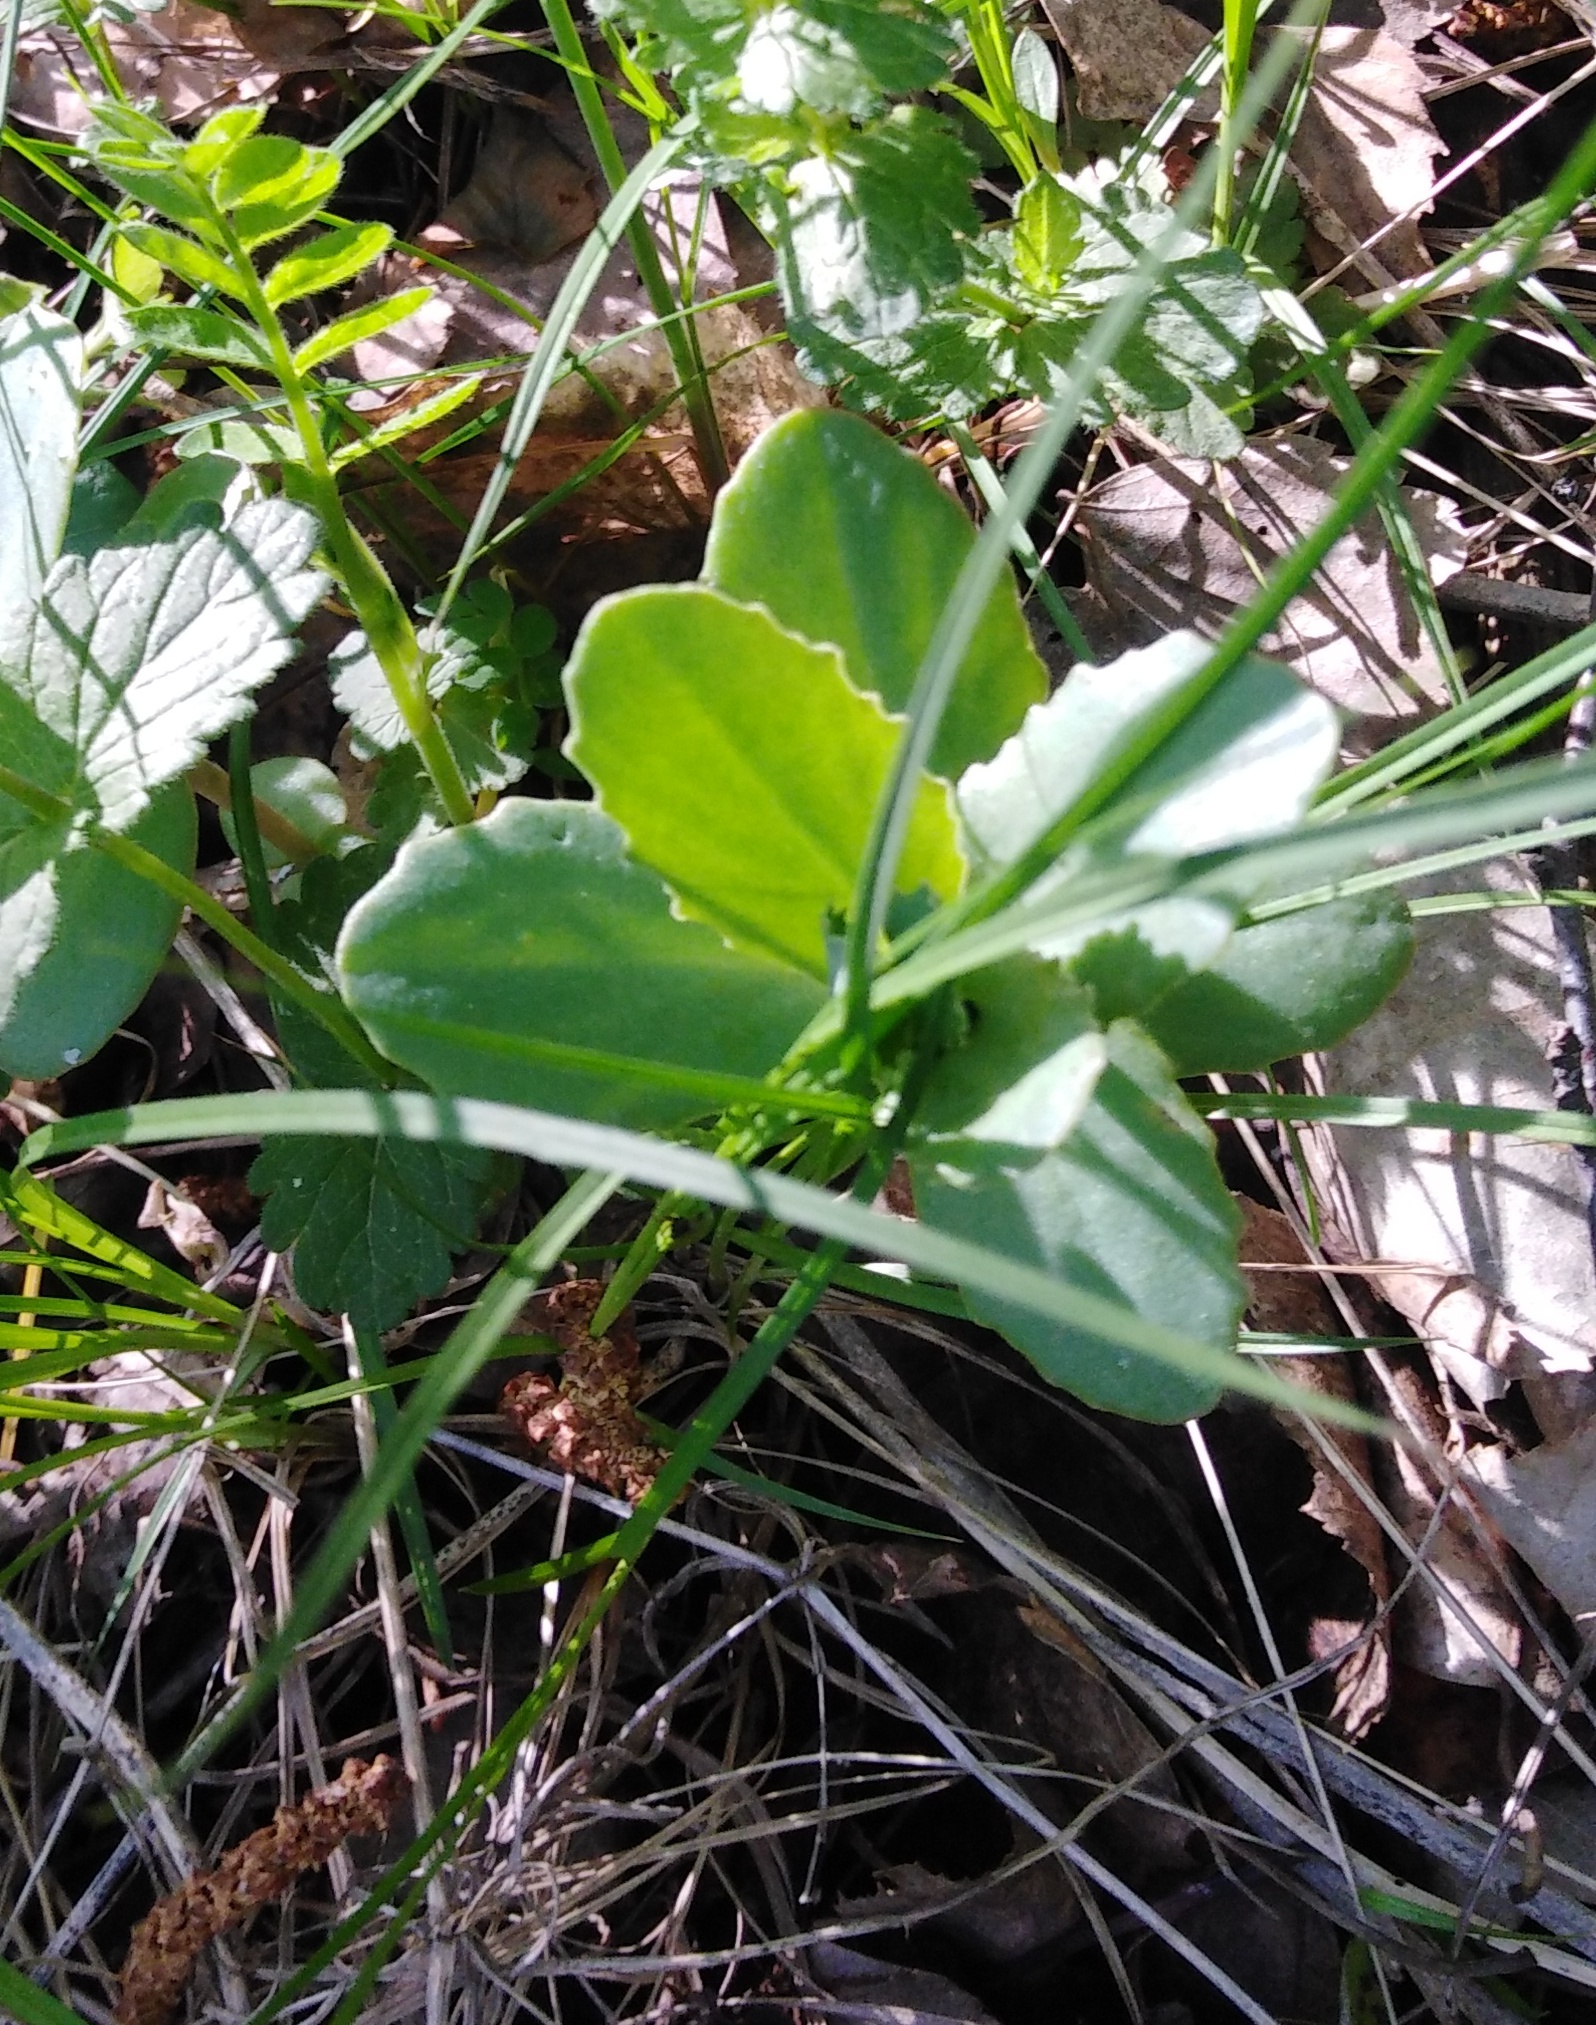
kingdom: Plantae
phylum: Tracheophyta
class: Magnoliopsida
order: Saxifragales
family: Crassulaceae
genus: Hylotelephium
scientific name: Hylotelephium maximum
